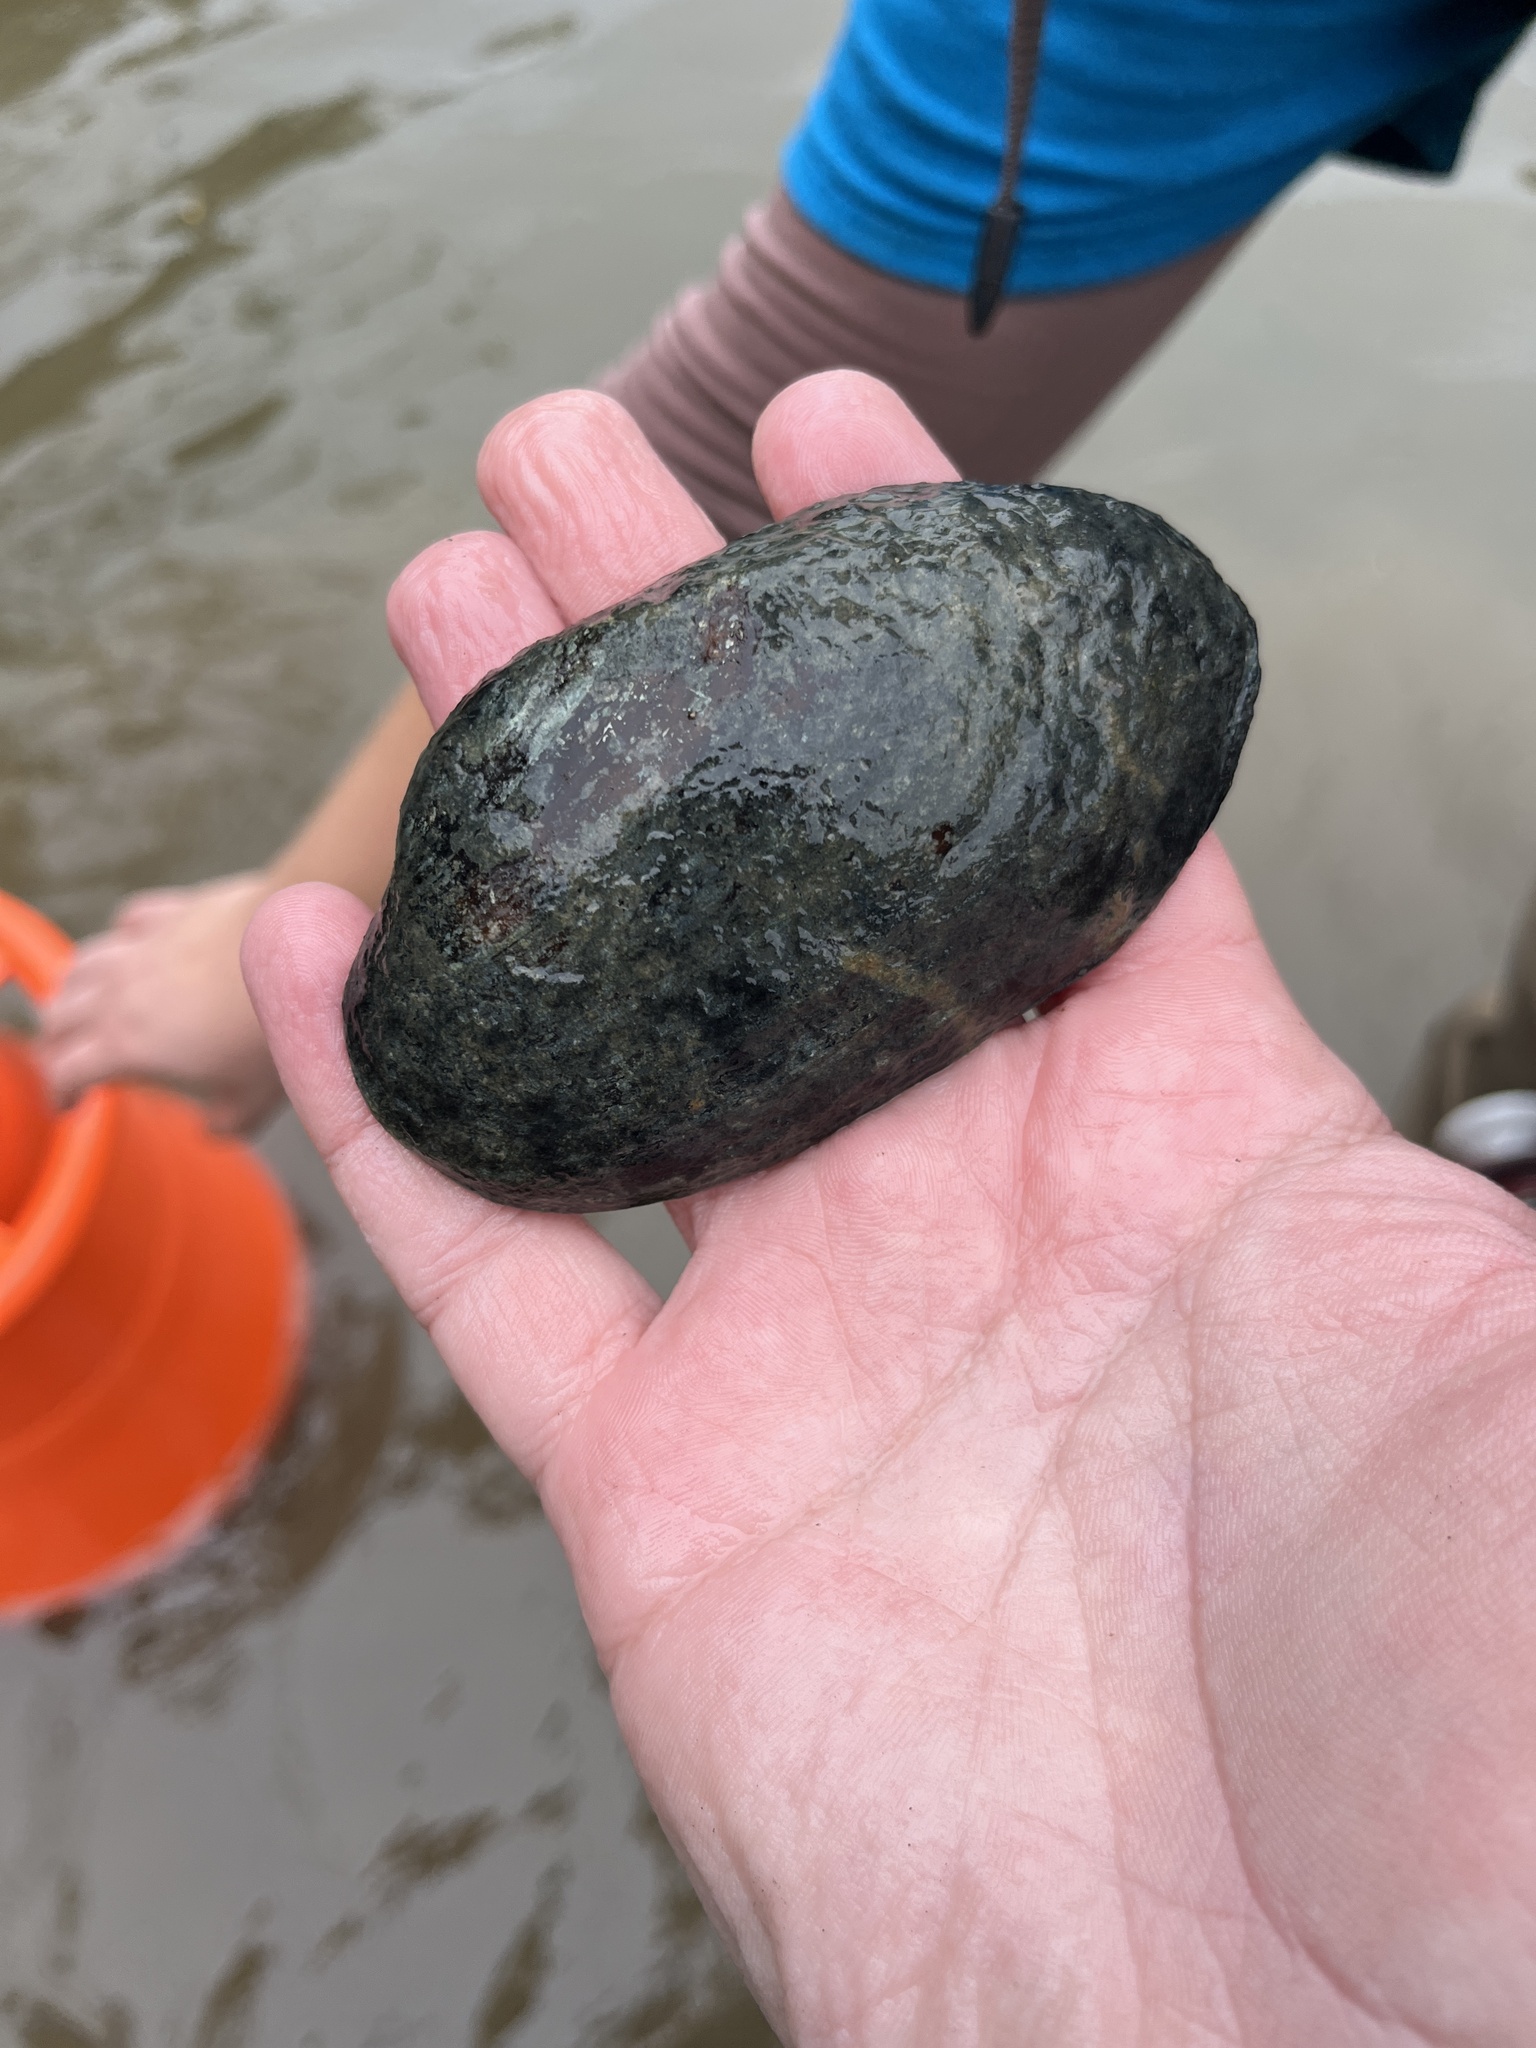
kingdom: Animalia
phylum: Mollusca
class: Bivalvia
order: Unionida
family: Unionidae
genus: Lampsilis
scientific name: Lampsilis siliquoidea
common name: Fatmucket
